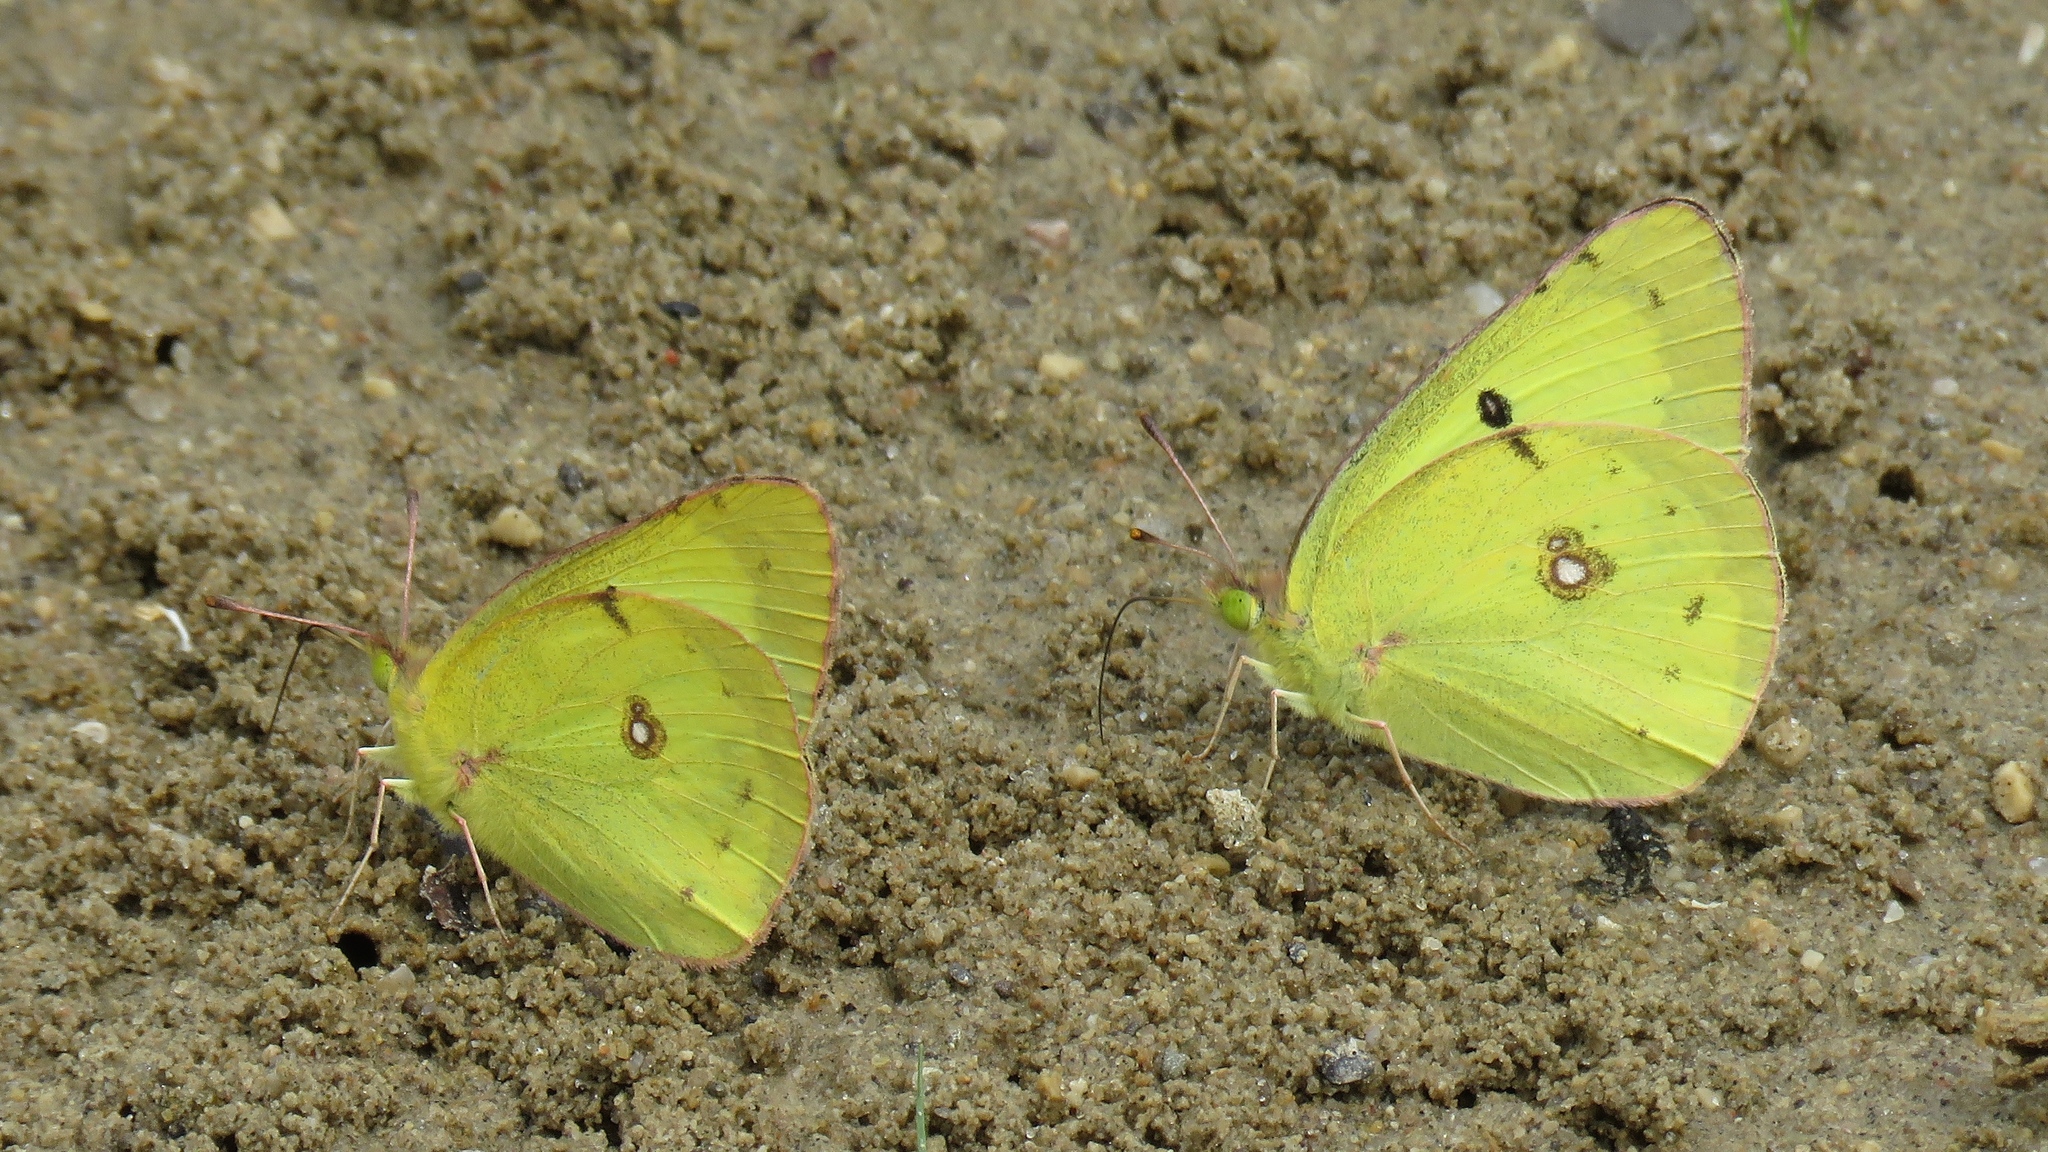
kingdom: Animalia
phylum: Arthropoda
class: Insecta
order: Lepidoptera
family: Pieridae
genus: Colias
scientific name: Colias philodice
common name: Clouded sulphur
